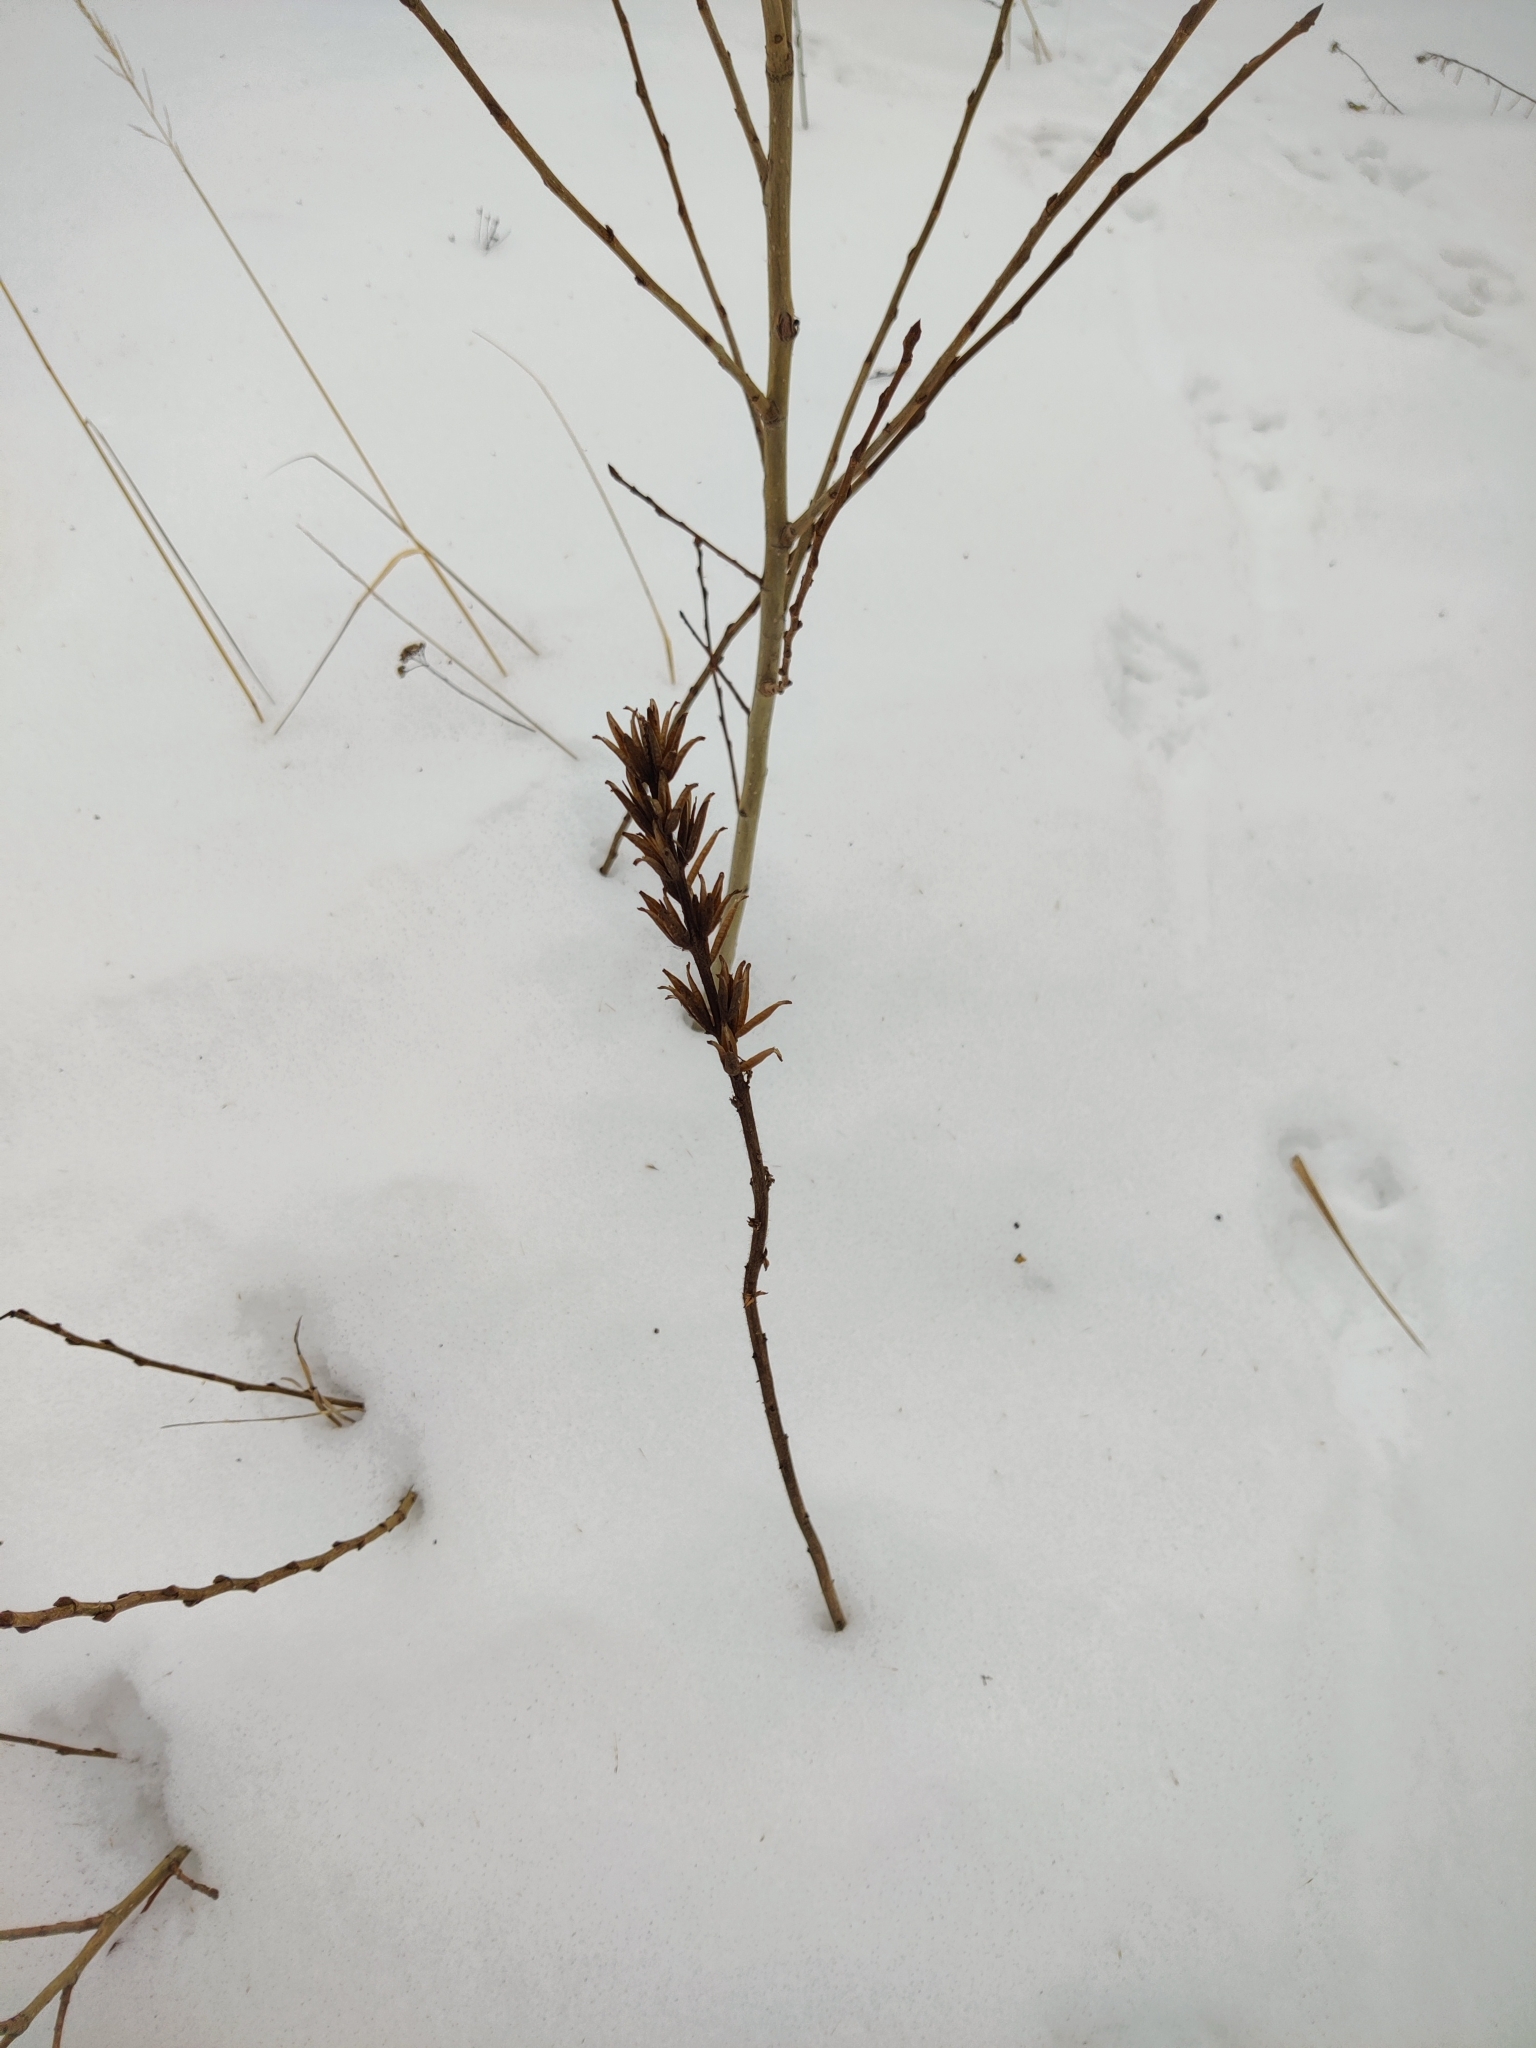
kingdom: Plantae
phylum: Tracheophyta
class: Magnoliopsida
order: Myrtales
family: Onagraceae
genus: Oenothera
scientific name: Oenothera
